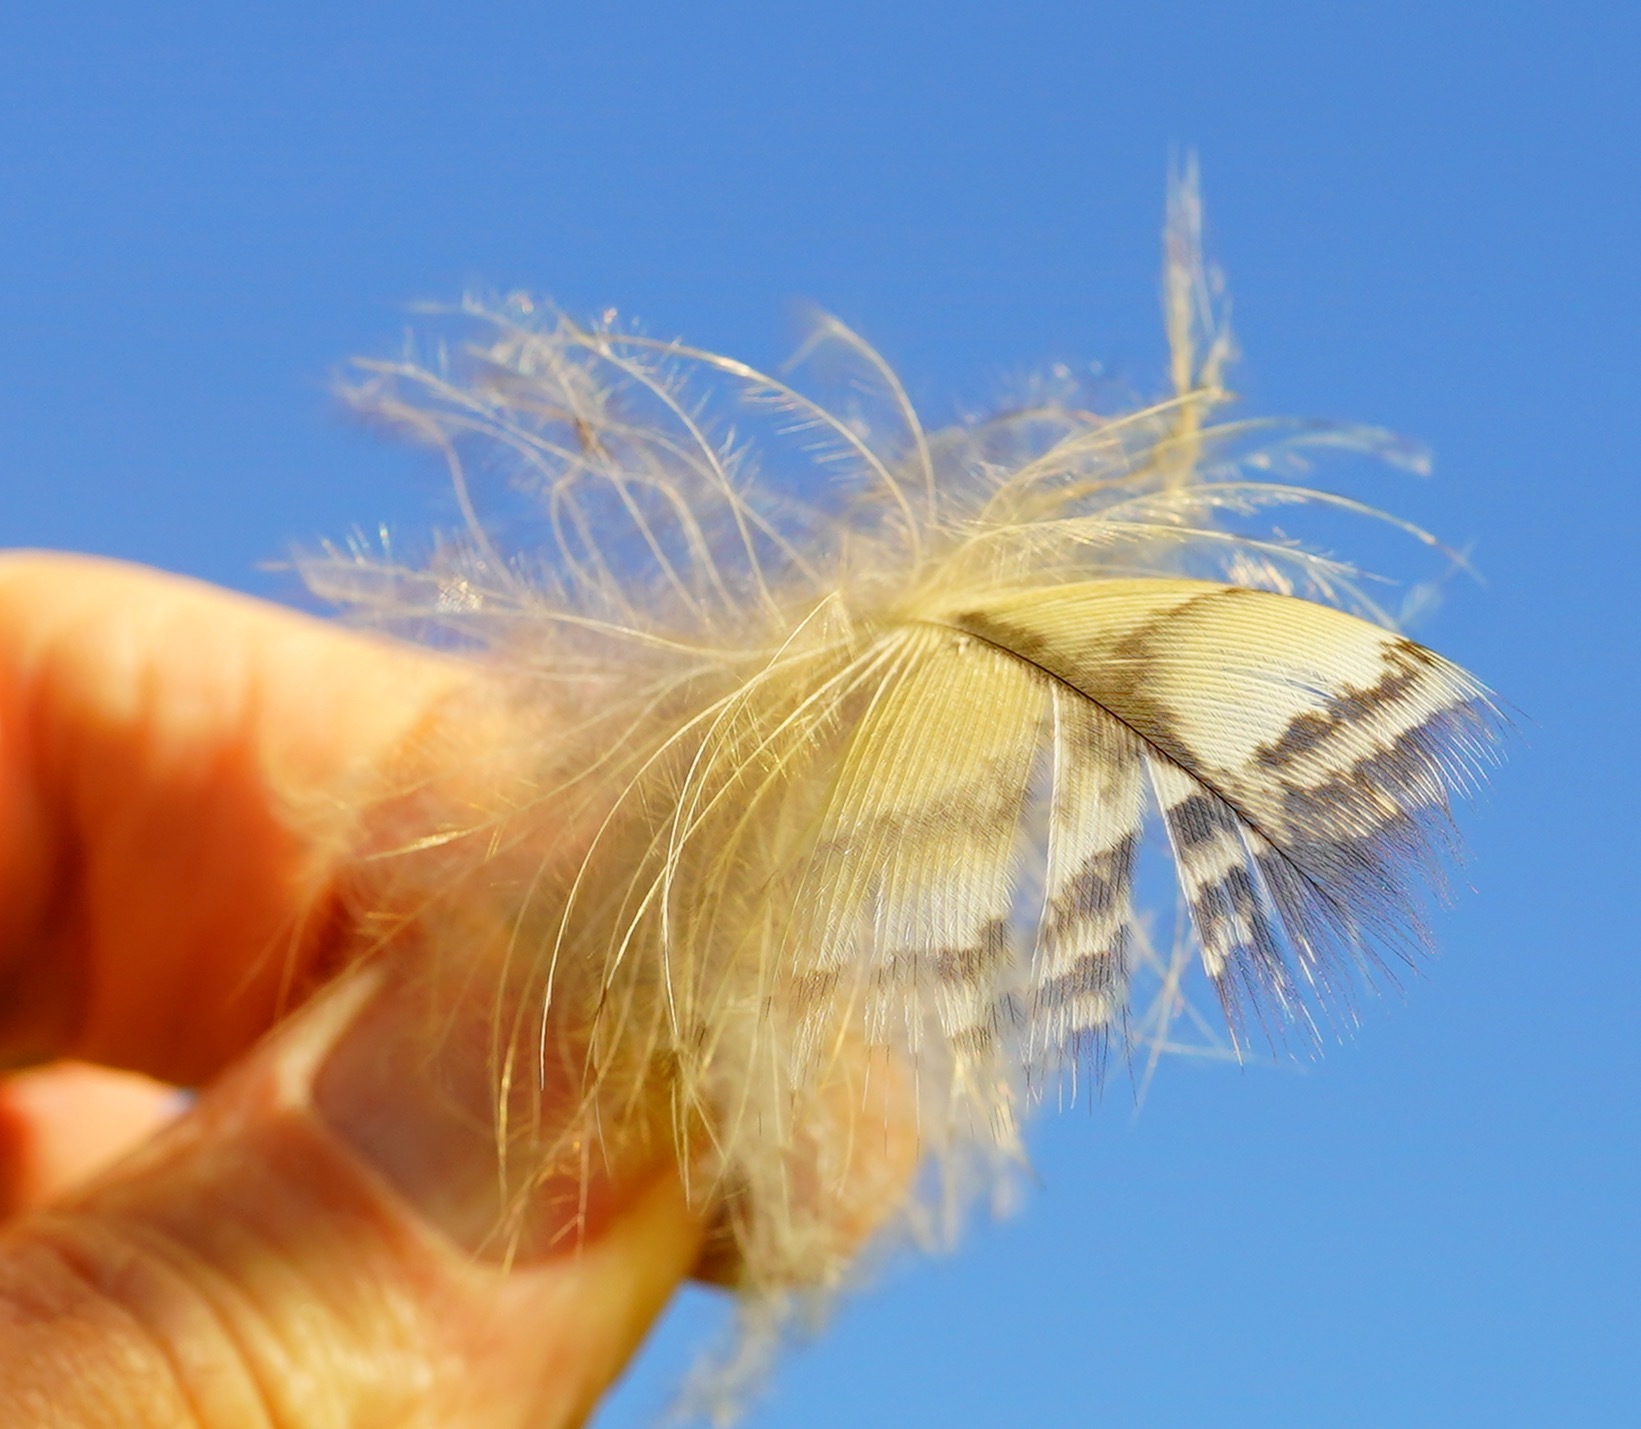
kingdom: Animalia
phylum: Chordata
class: Aves
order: Strigiformes
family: Strigidae
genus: Bubo
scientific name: Bubo virginianus
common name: Great horned owl
